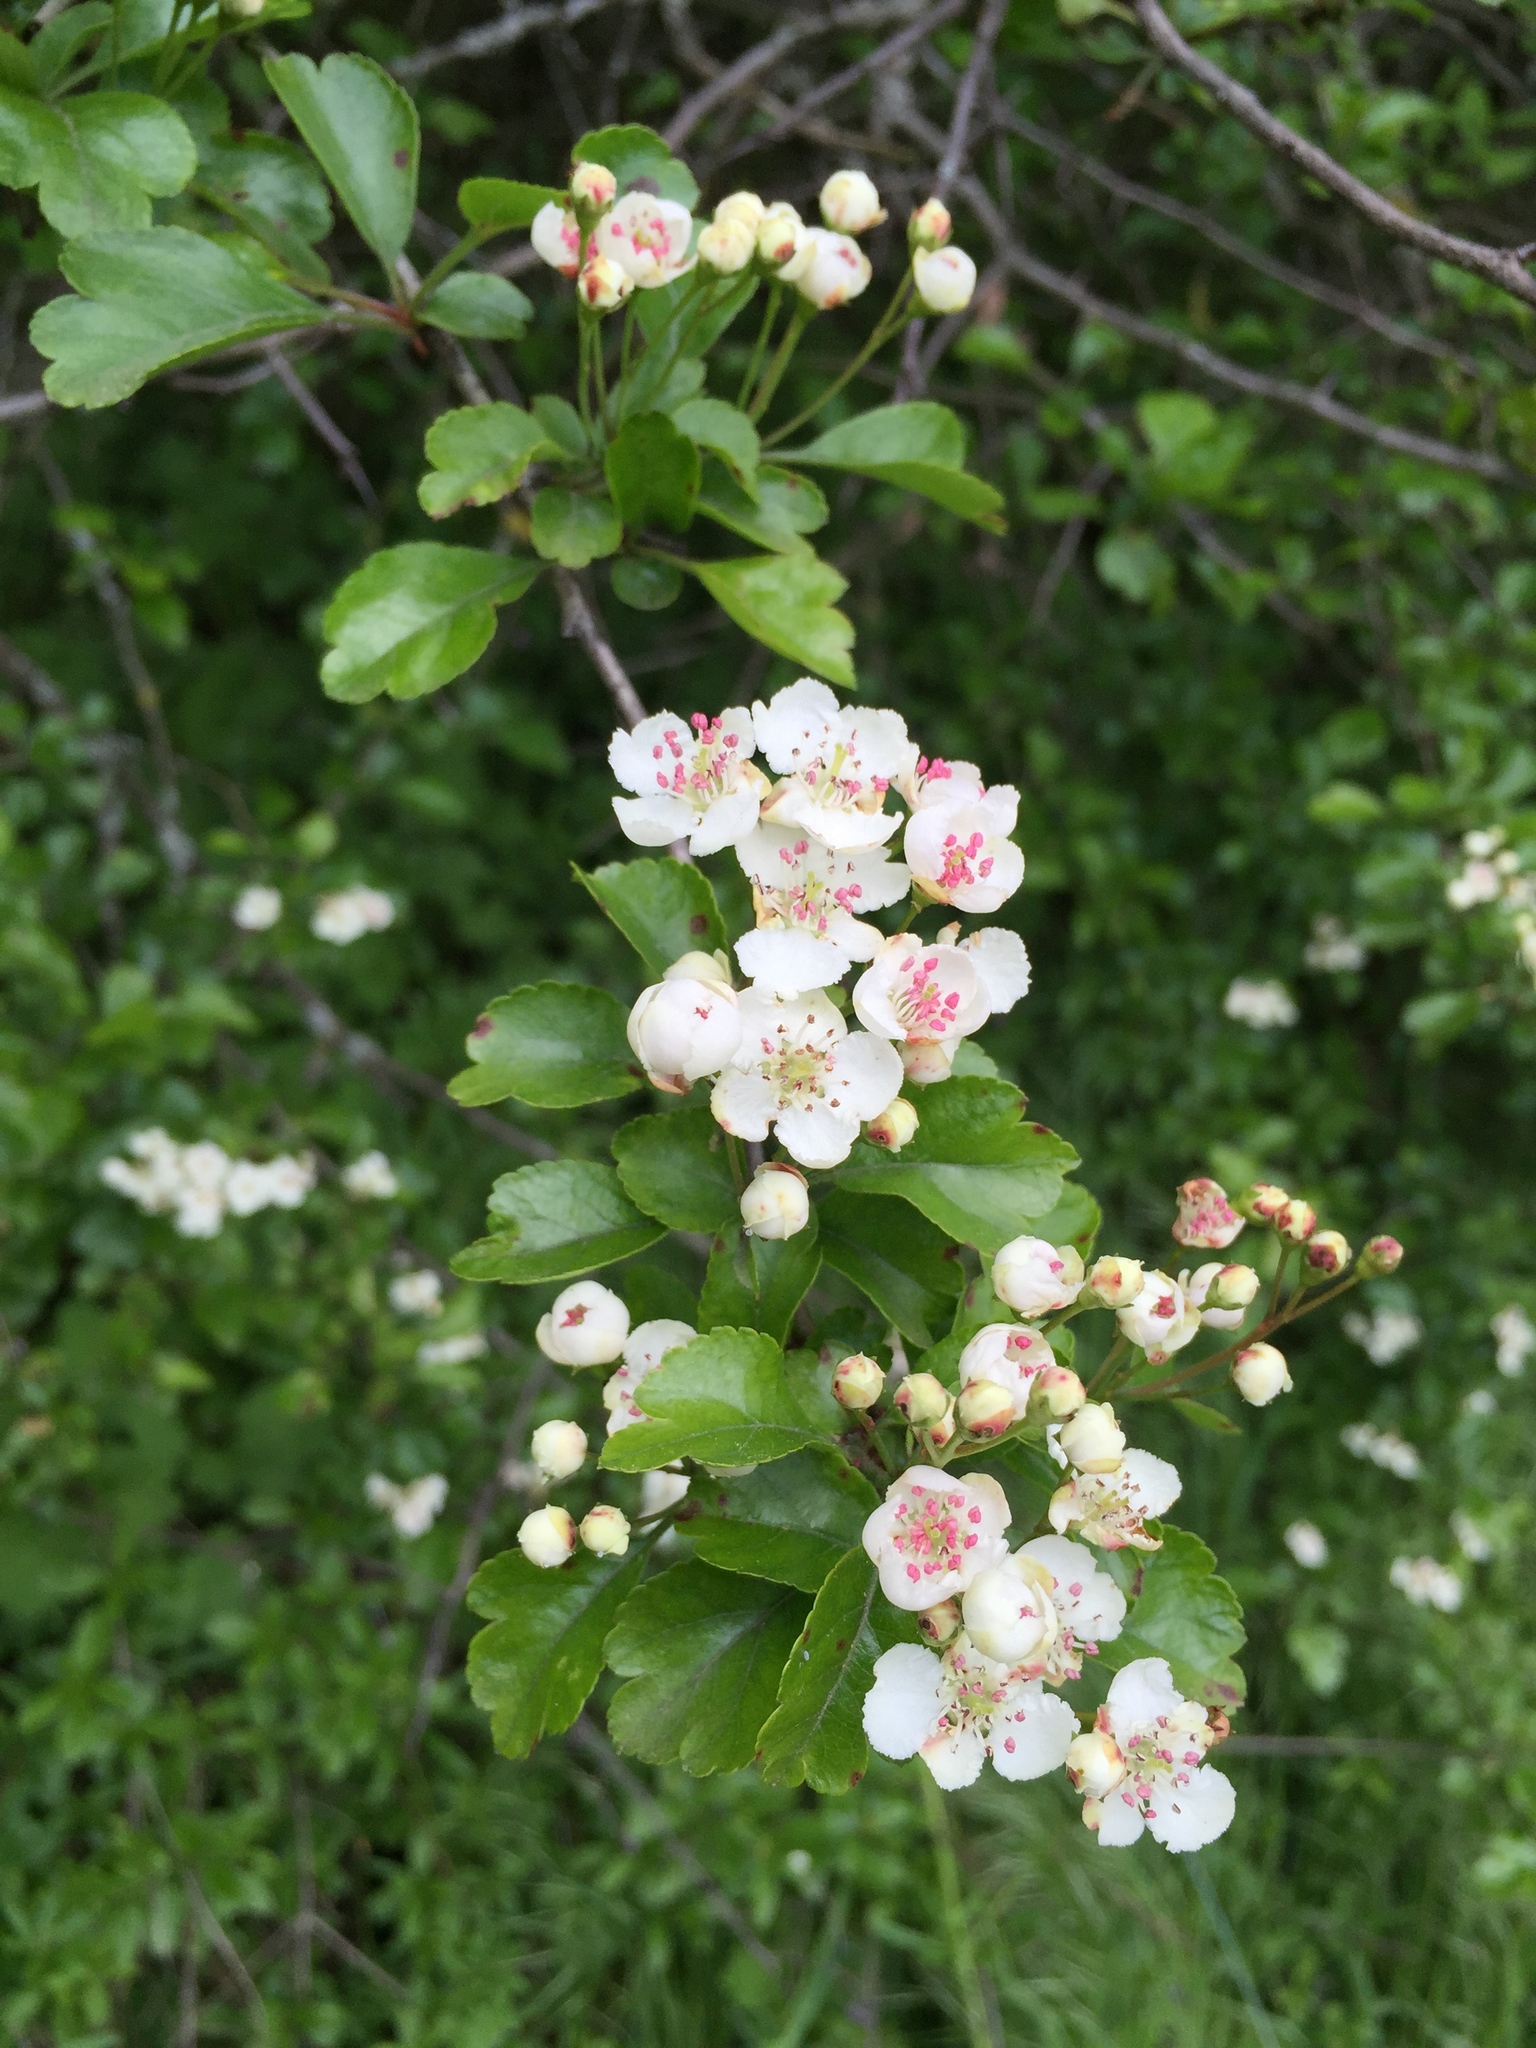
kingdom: Plantae
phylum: Tracheophyta
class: Magnoliopsida
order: Rosales
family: Rosaceae
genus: Crataegus
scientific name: Crataegus laevigata
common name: Midland hawthorn
